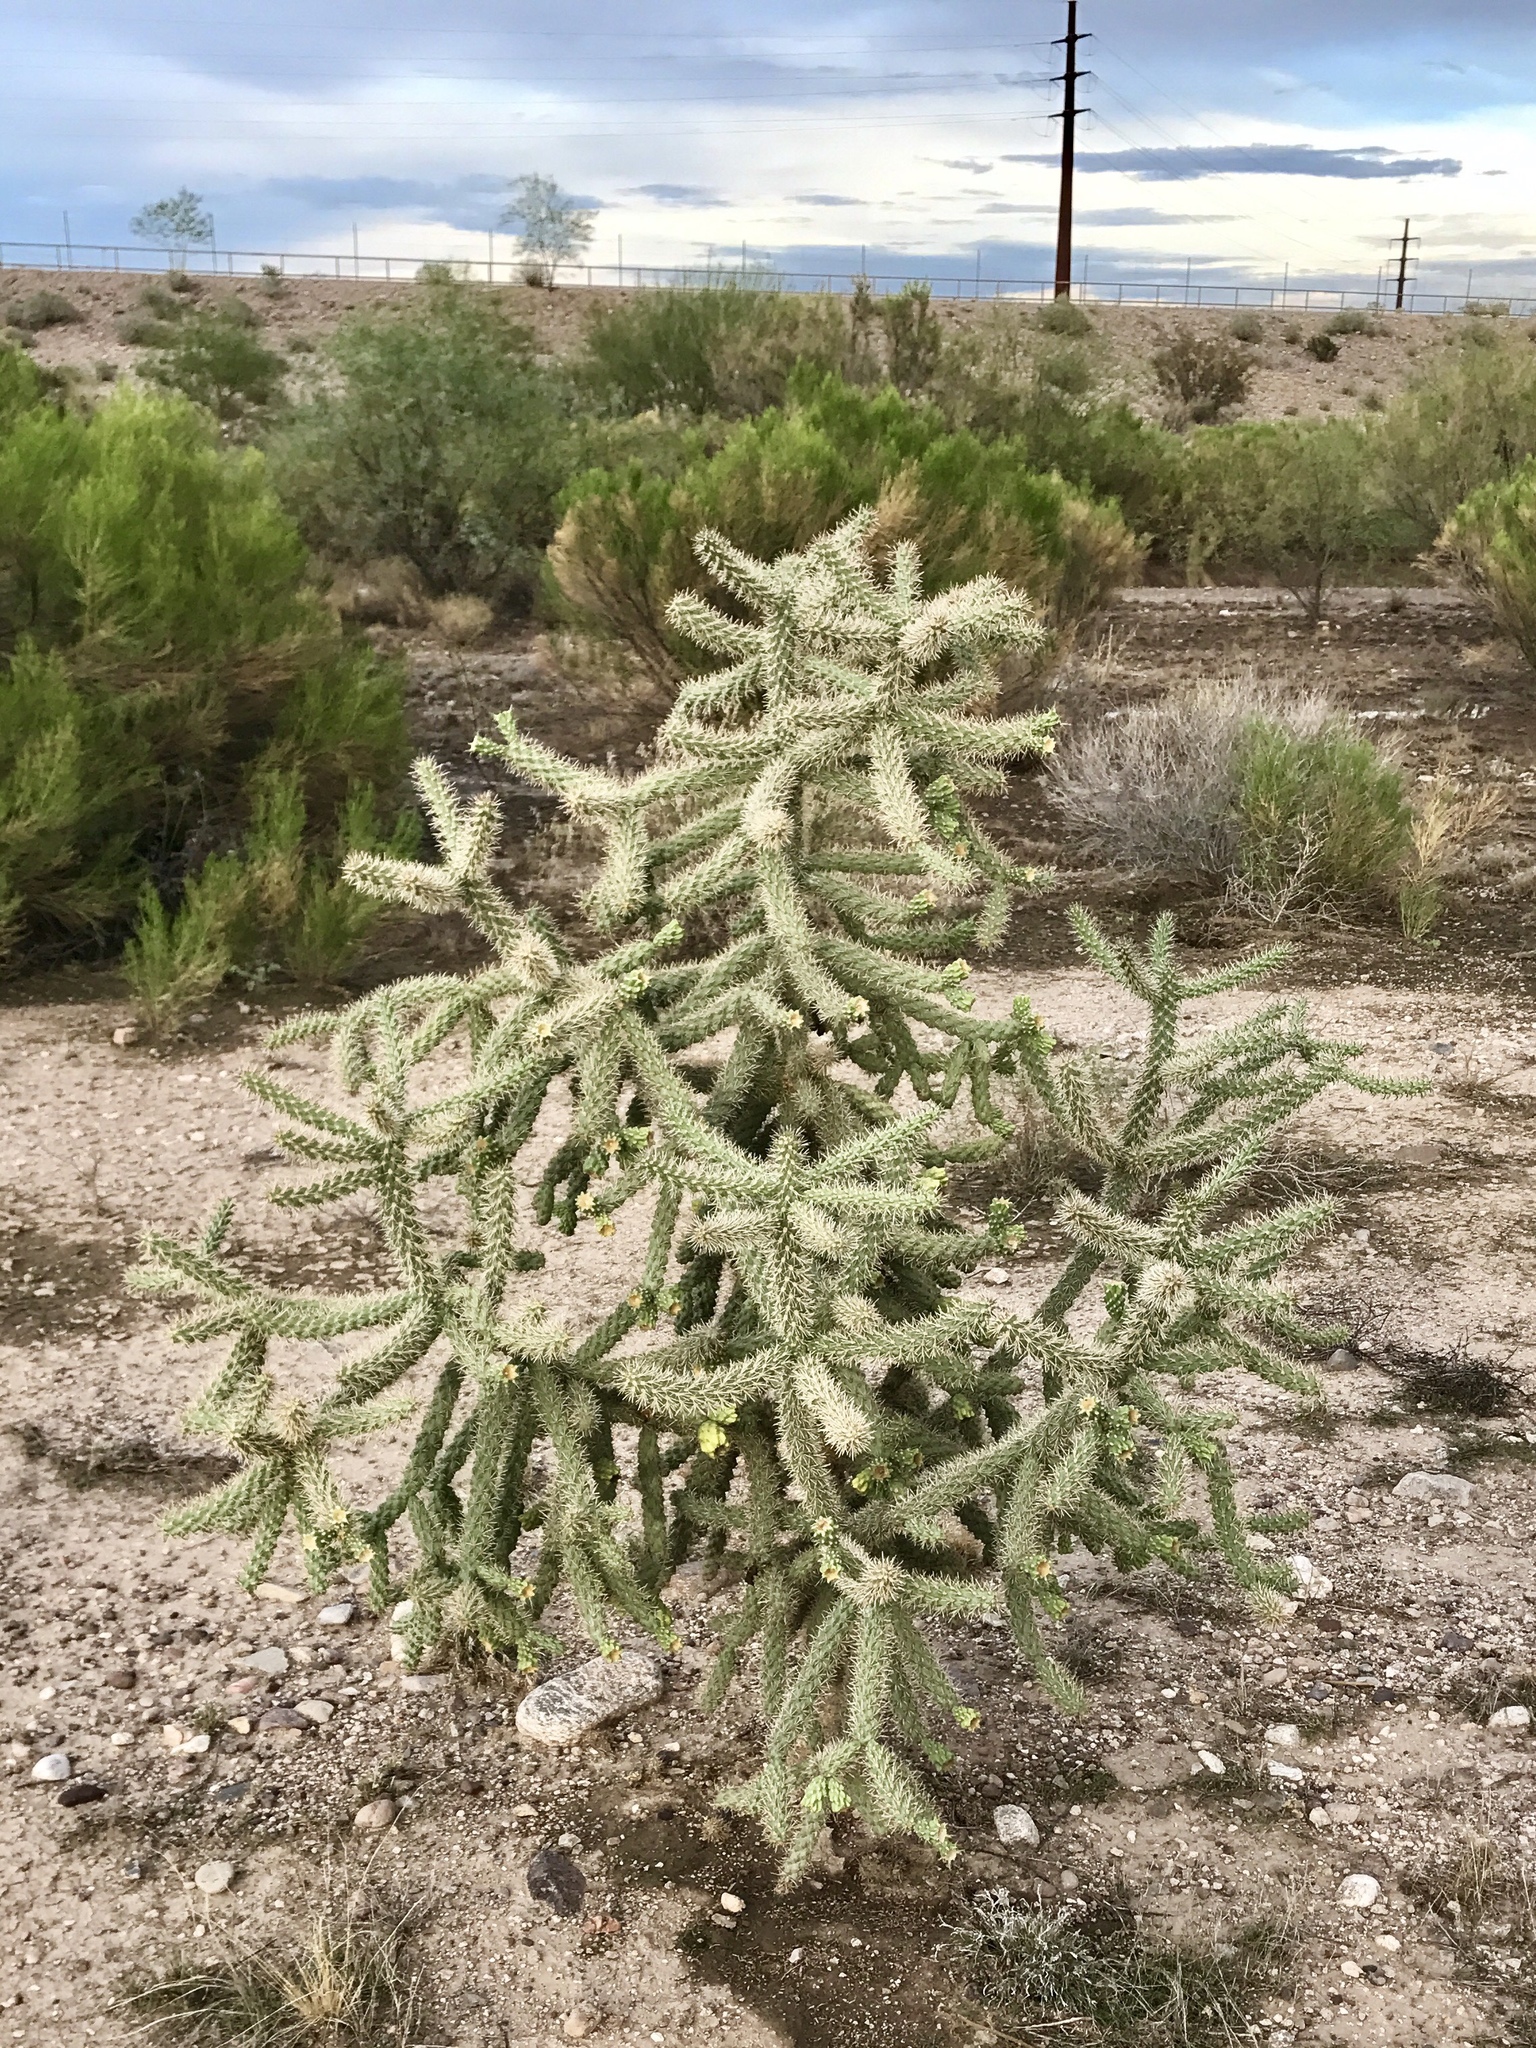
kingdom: Plantae
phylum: Tracheophyta
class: Magnoliopsida
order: Caryophyllales
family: Cactaceae
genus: Cylindropuntia
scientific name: Cylindropuntia imbricata
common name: Candelabrum cactus
